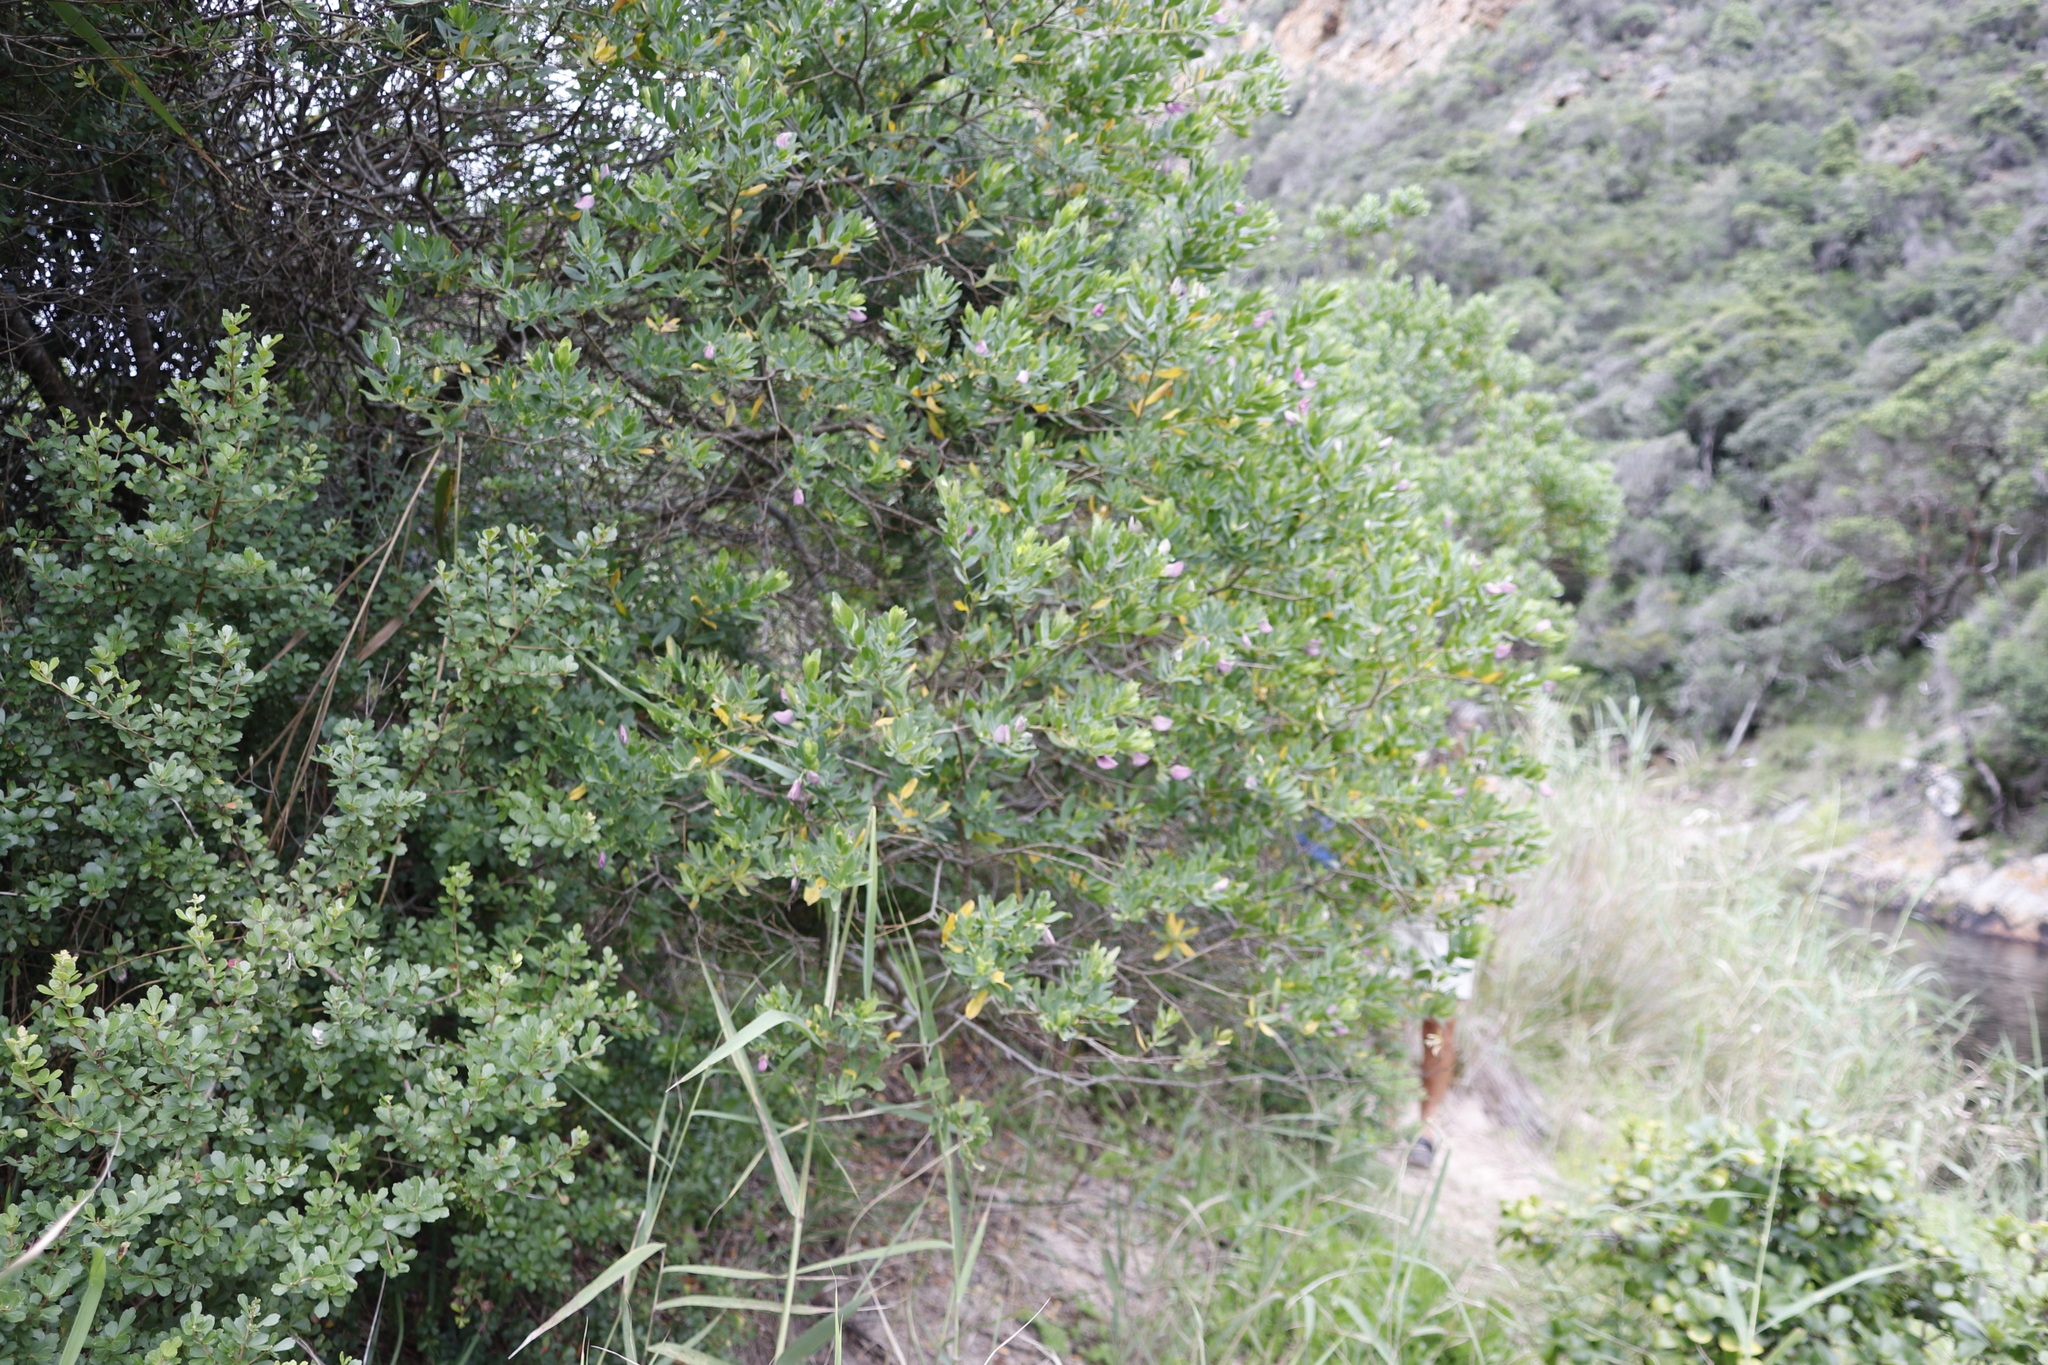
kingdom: Plantae
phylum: Tracheophyta
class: Magnoliopsida
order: Fabales
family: Polygalaceae
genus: Polygala
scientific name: Polygala myrtifolia
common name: Myrtle-leaf milkwort
